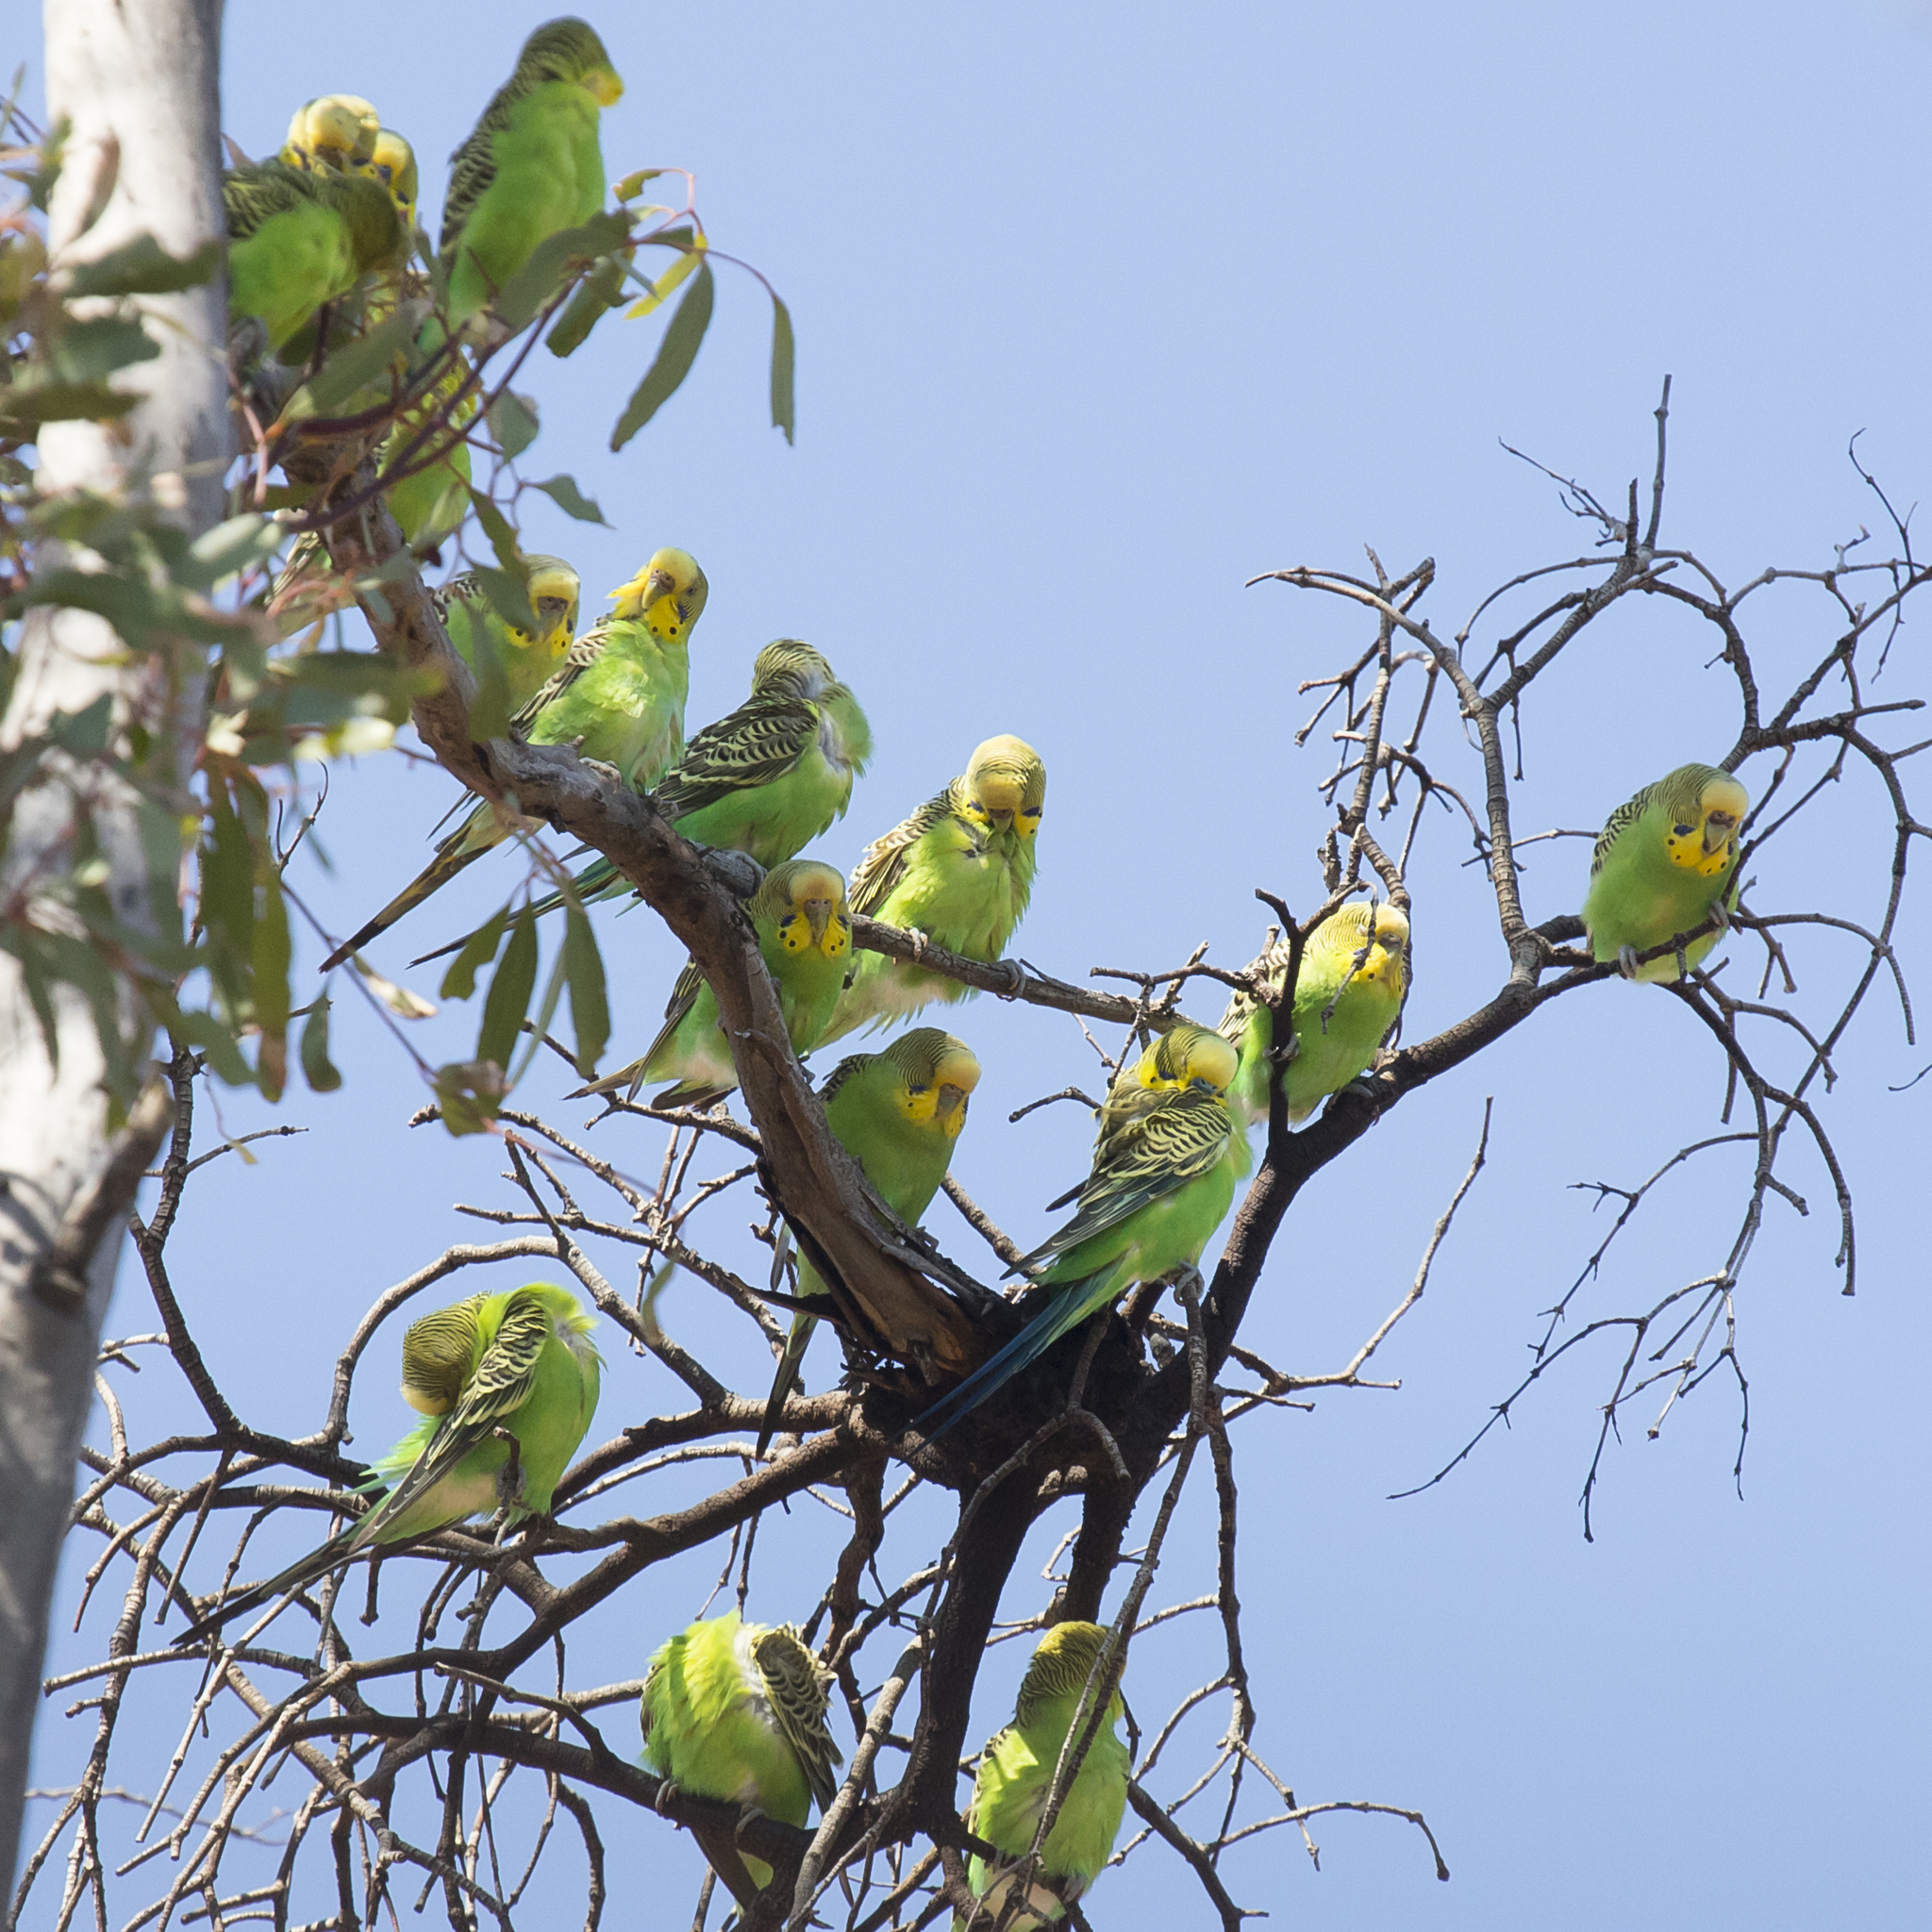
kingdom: Animalia
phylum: Chordata
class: Aves
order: Psittaciformes
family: Psittacidae
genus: Melopsittacus
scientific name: Melopsittacus undulatus
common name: Budgerigar
